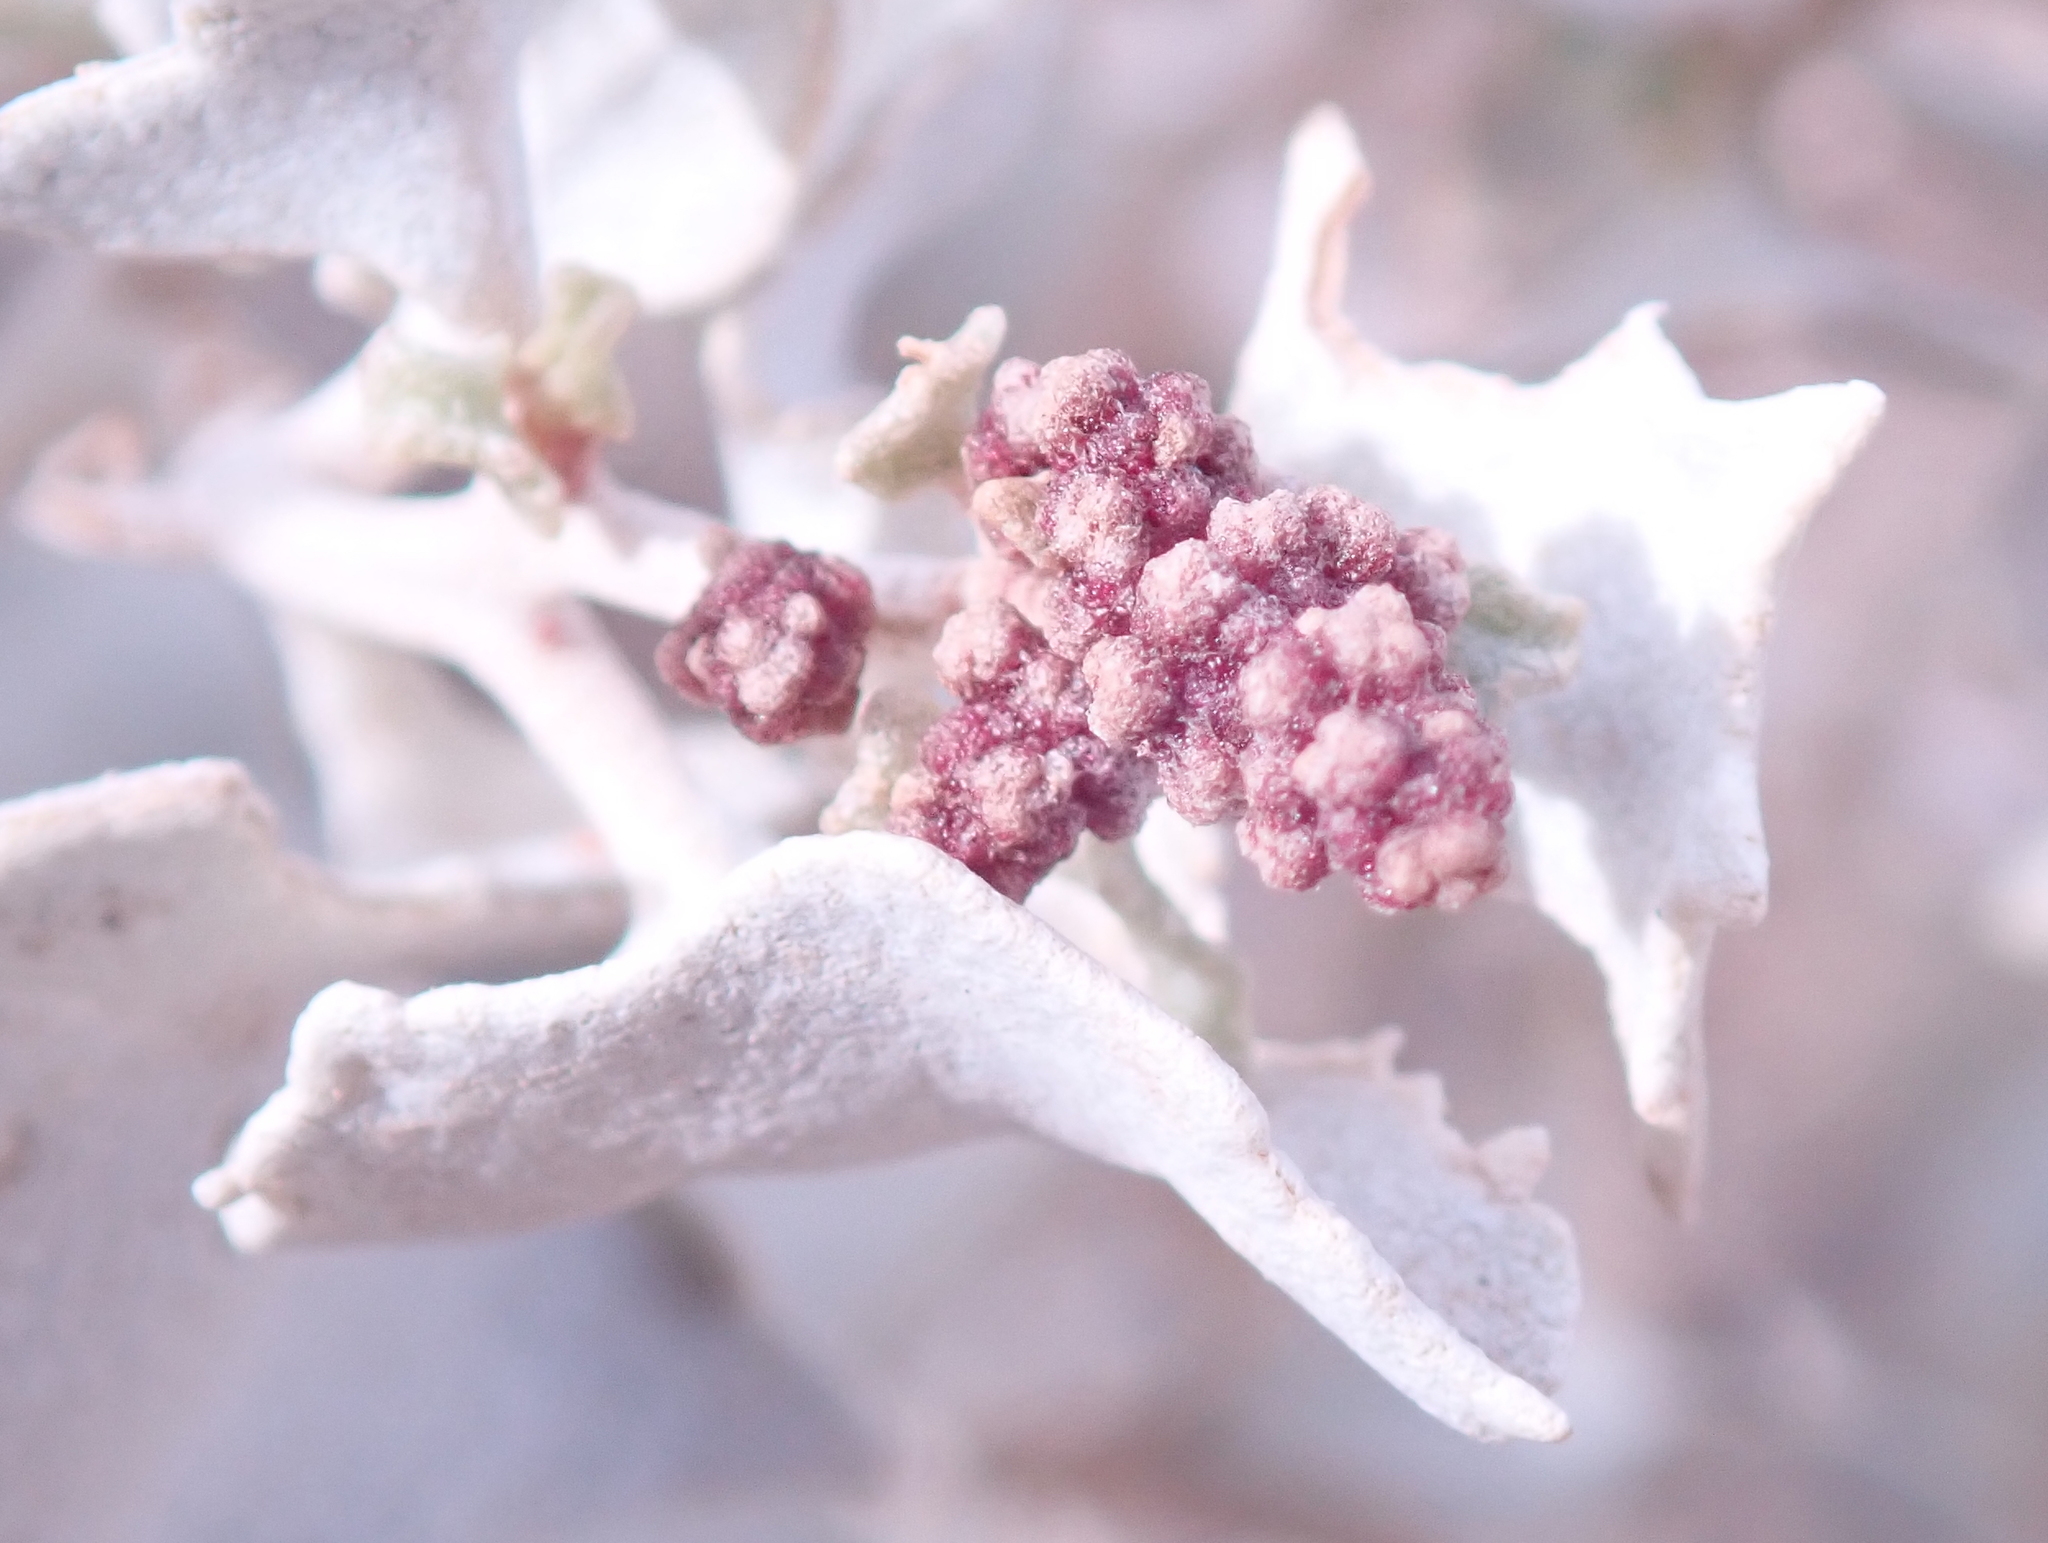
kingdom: Plantae
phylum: Tracheophyta
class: Magnoliopsida
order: Caryophyllales
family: Amaranthaceae
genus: Atriplex
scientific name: Atriplex hymenelytra
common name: Desert-holly
